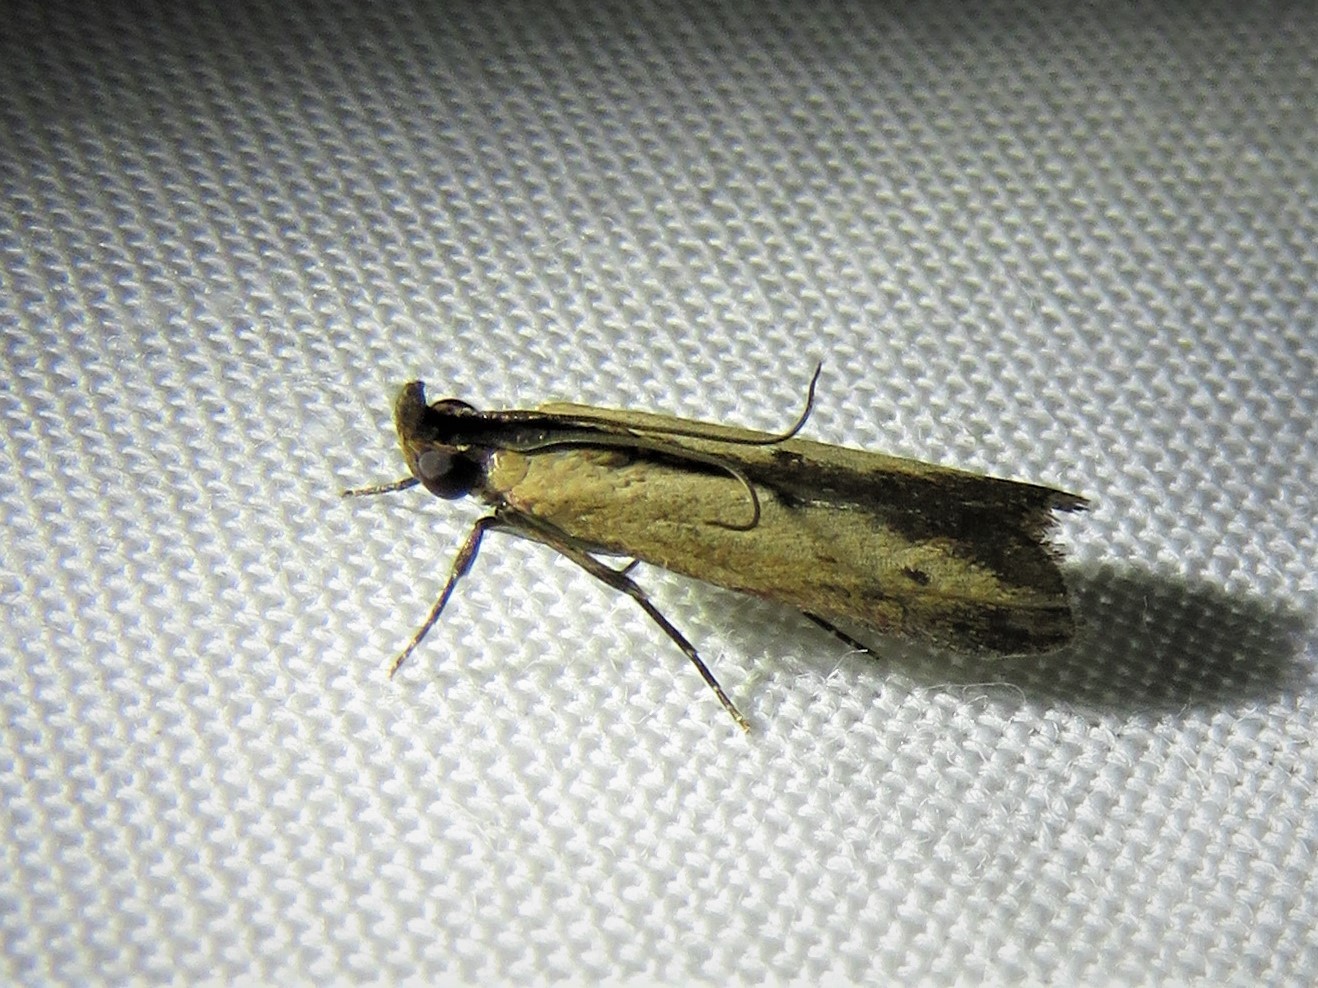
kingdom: Animalia
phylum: Arthropoda
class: Insecta
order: Lepidoptera
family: Pyralidae
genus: Elasmopalpus
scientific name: Elasmopalpus lignosella
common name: Lesser cornstalk borer
